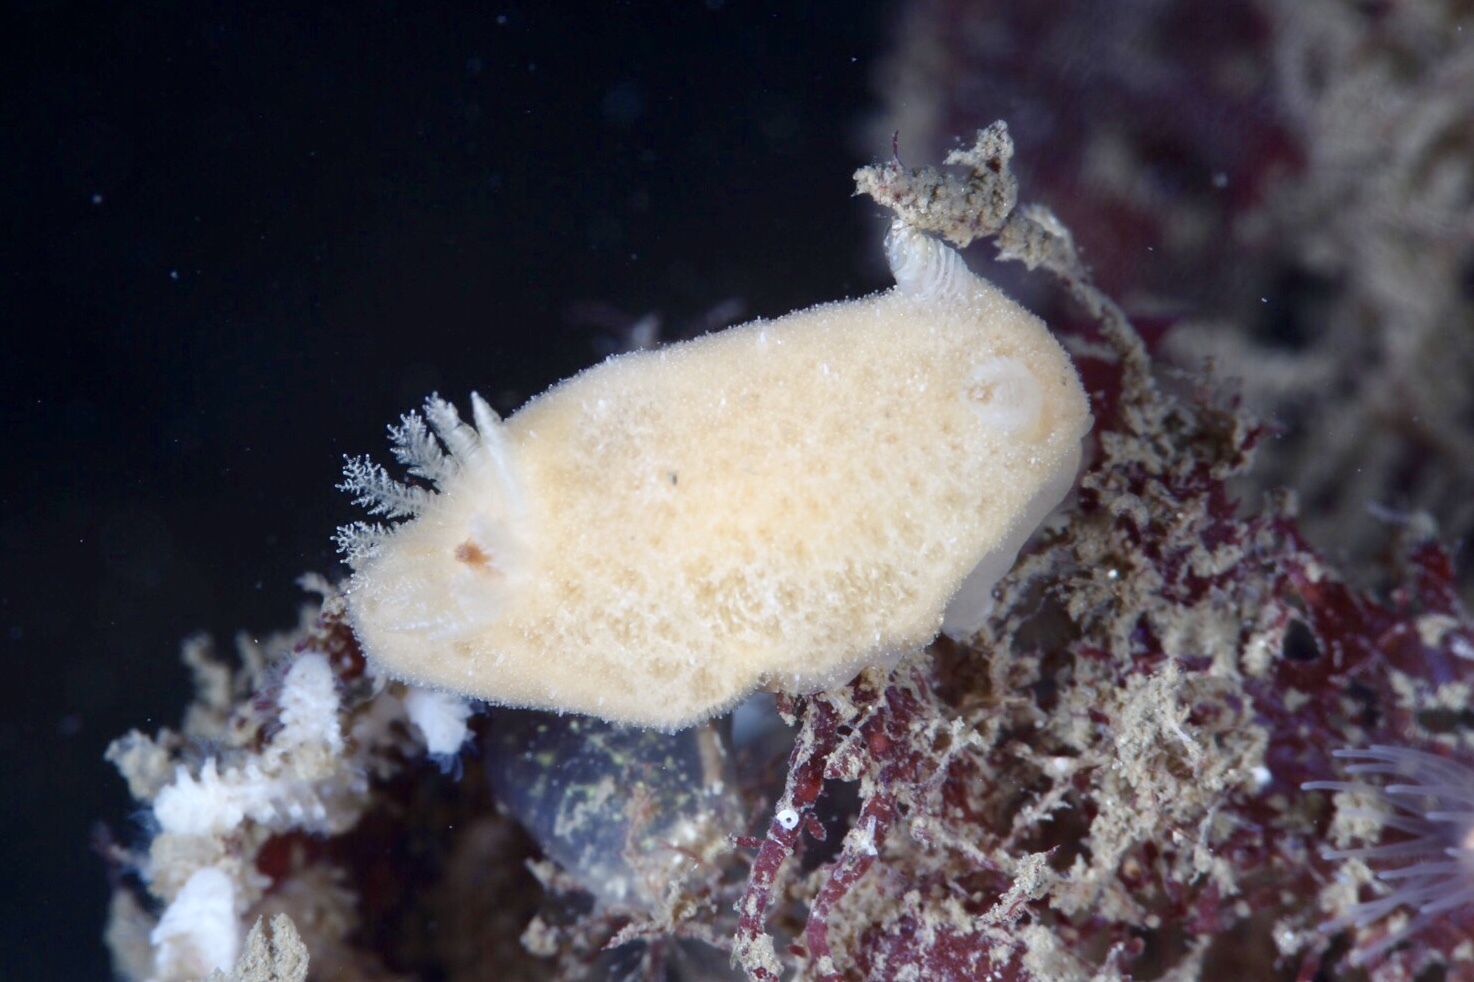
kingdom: Animalia
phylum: Mollusca
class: Gastropoda
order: Nudibranchia
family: Discodorididae
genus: Jorunna
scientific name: Jorunna tomentosa
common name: Grey sea slug
